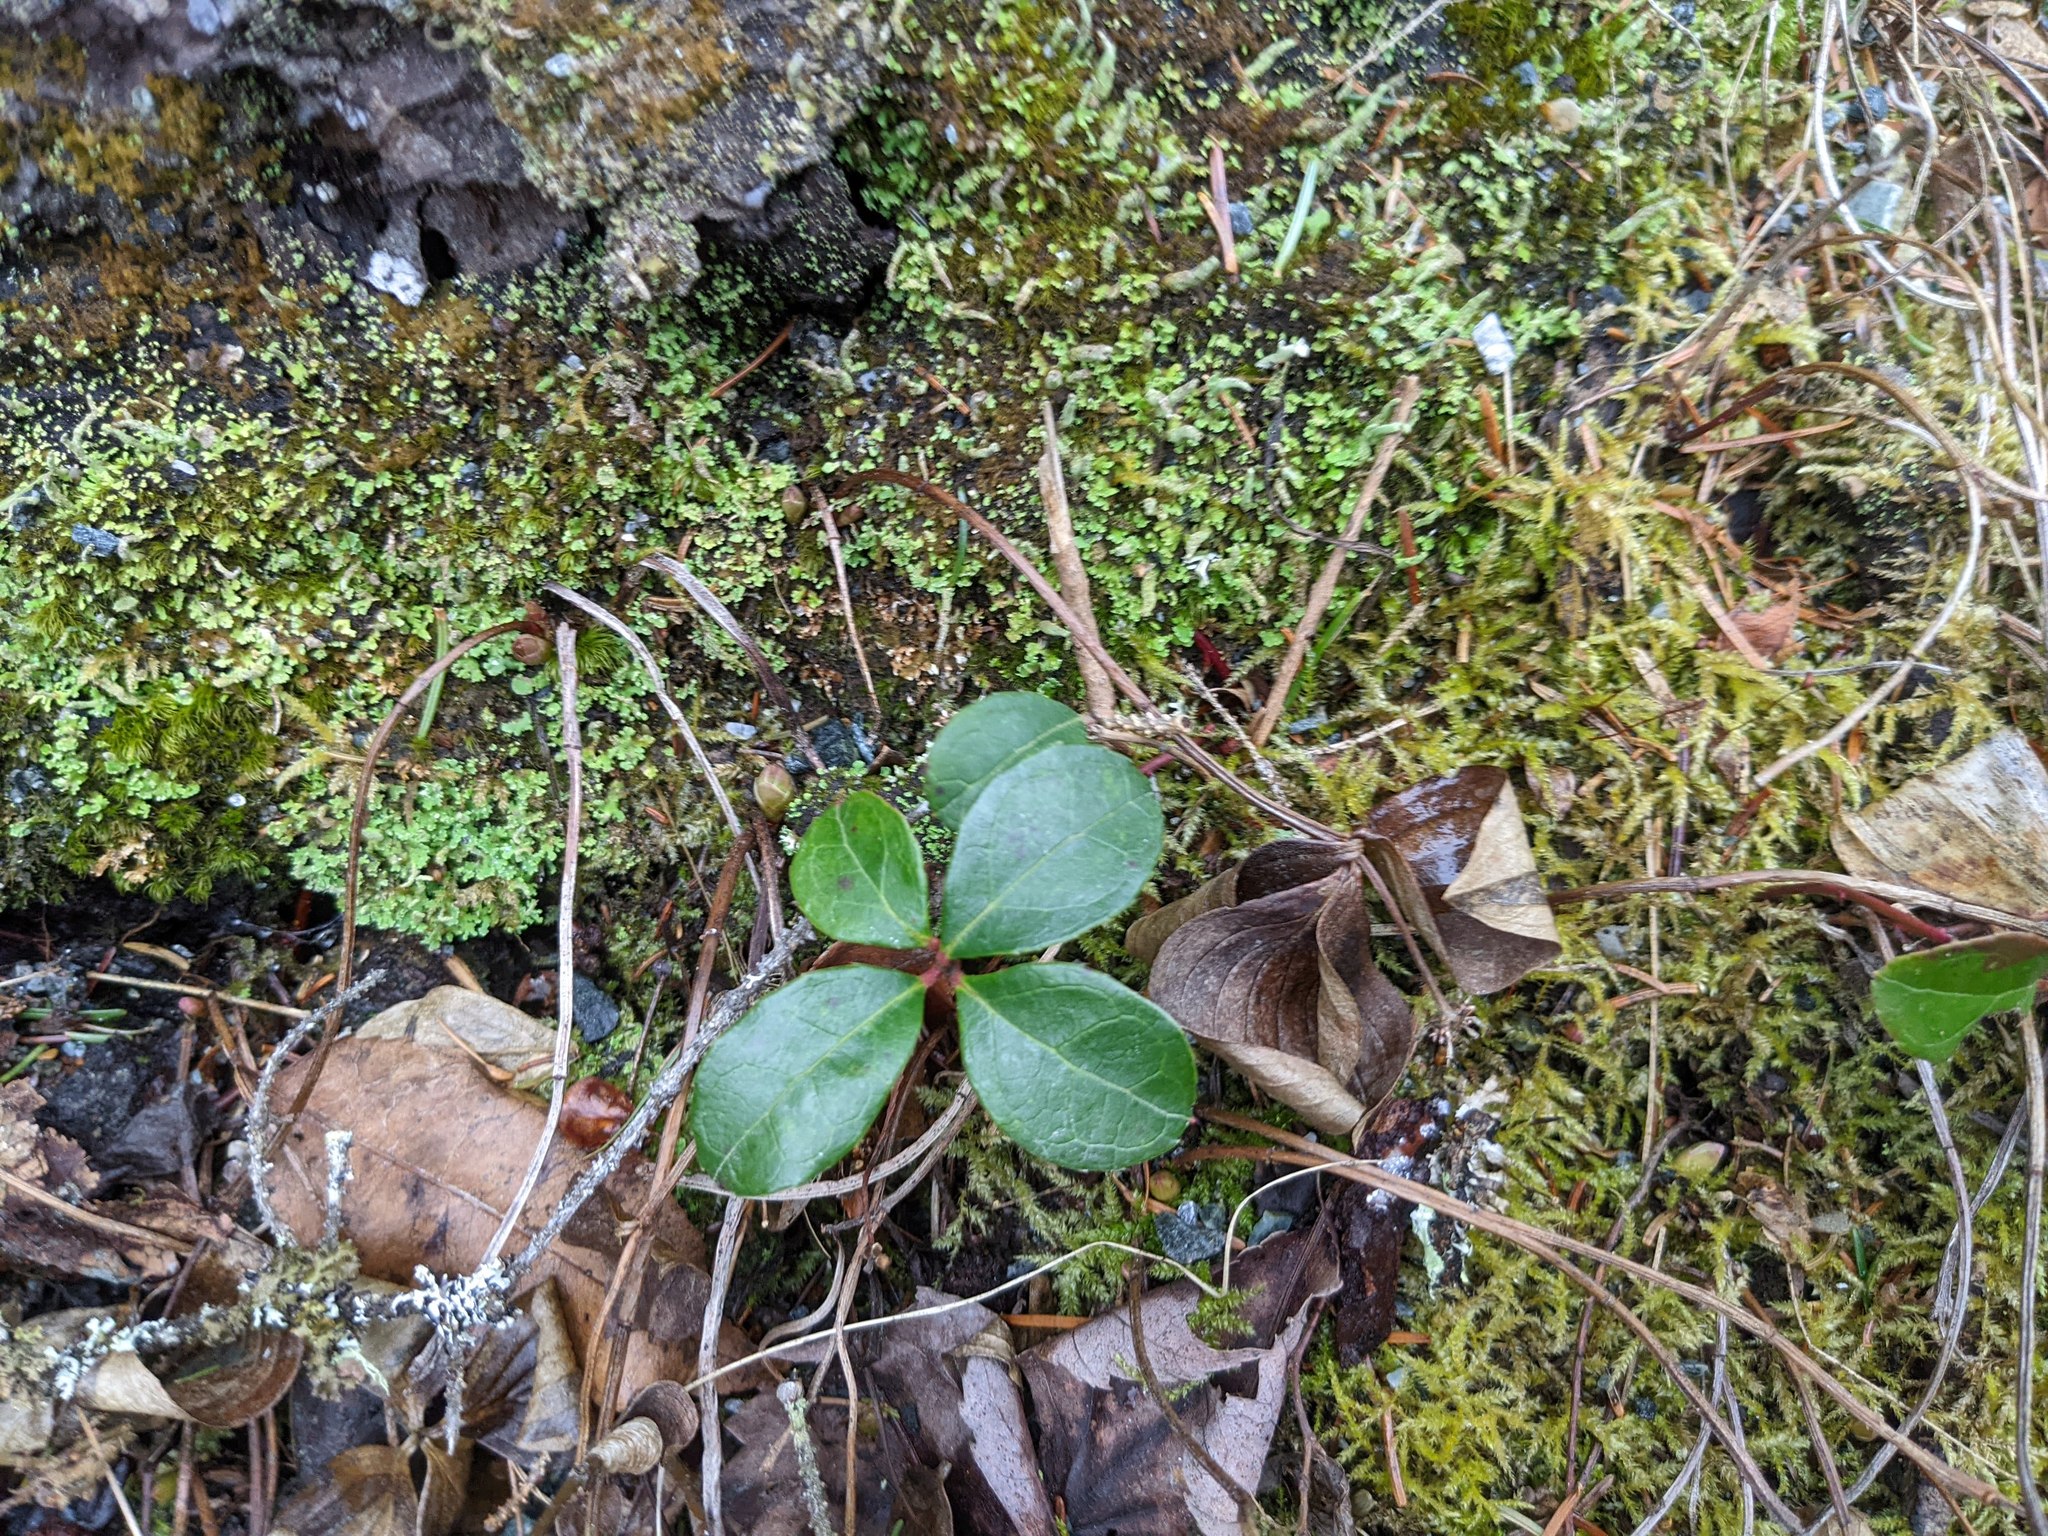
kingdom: Plantae
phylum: Tracheophyta
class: Magnoliopsida
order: Ericales
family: Ericaceae
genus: Gaultheria
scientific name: Gaultheria procumbens
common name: Checkerberry
